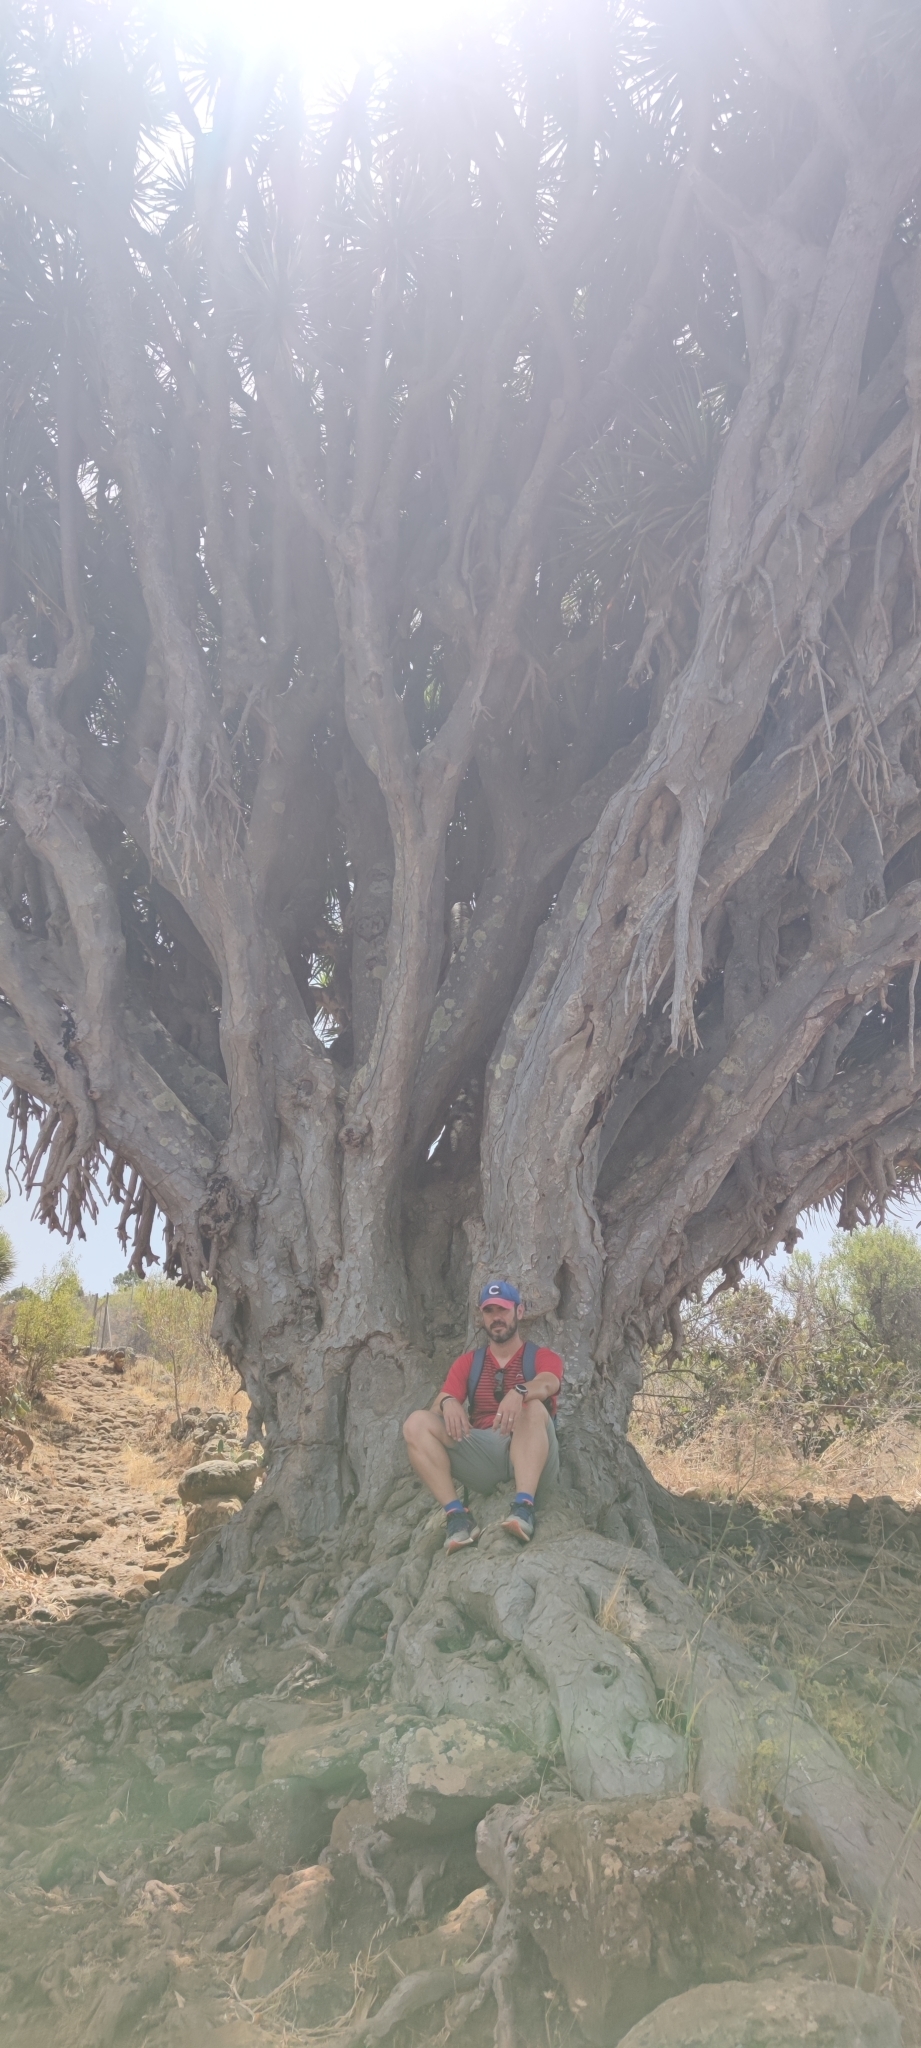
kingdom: Plantae
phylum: Tracheophyta
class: Liliopsida
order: Asparagales
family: Asparagaceae
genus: Dracaena
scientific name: Dracaena draco
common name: Canary island dragon tree
